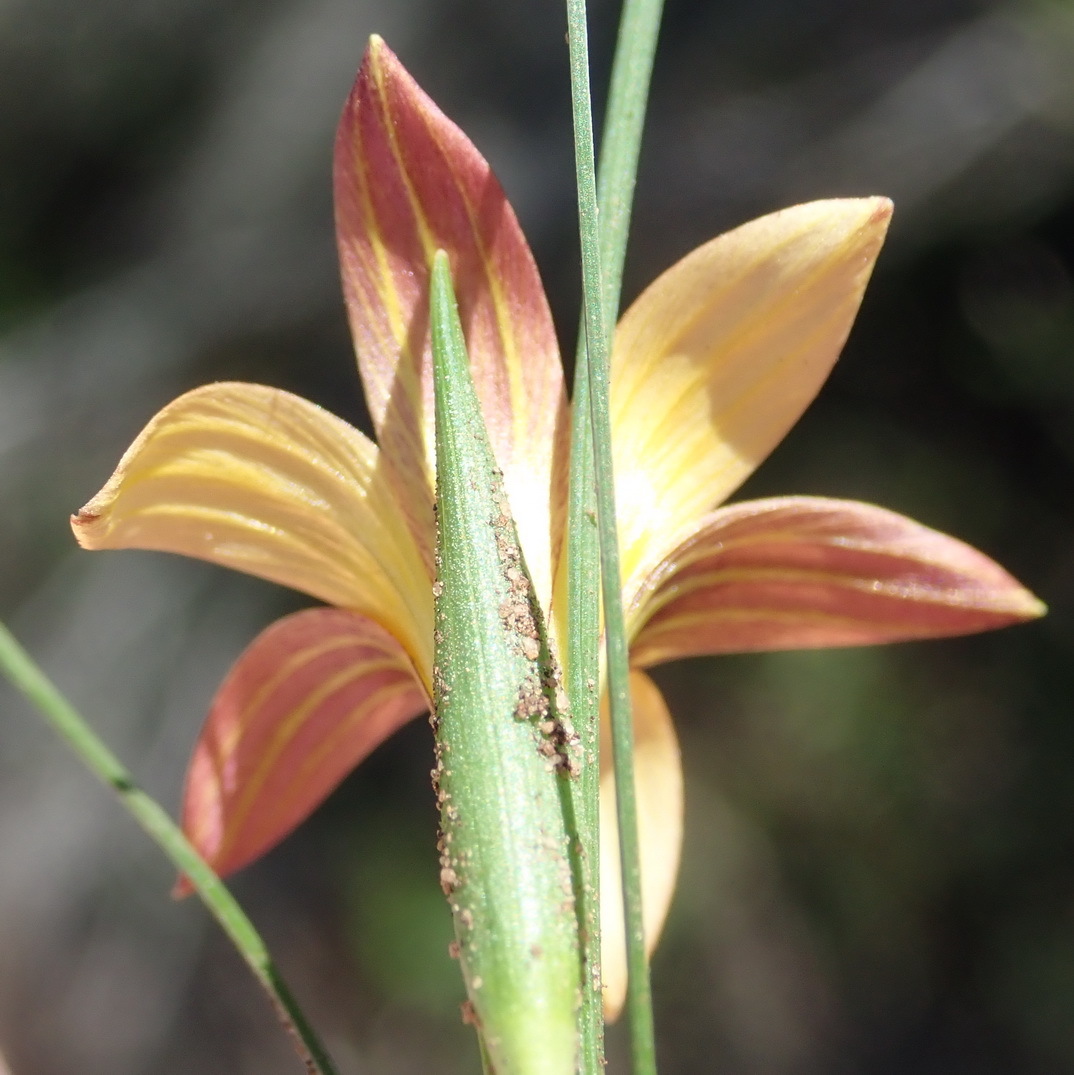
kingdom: Plantae
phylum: Tracheophyta
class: Liliopsida
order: Asparagales
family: Iridaceae
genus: Romulea
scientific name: Romulea setifolia
